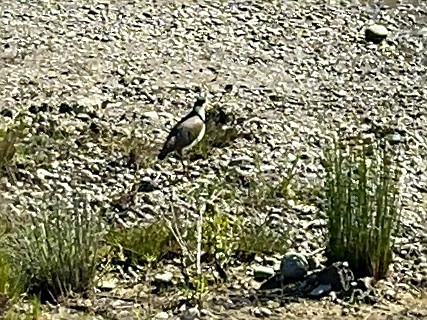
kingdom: Animalia
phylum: Chordata
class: Aves
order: Charadriiformes
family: Charadriidae
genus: Vanellus
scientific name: Vanellus miles
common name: Masked lapwing
